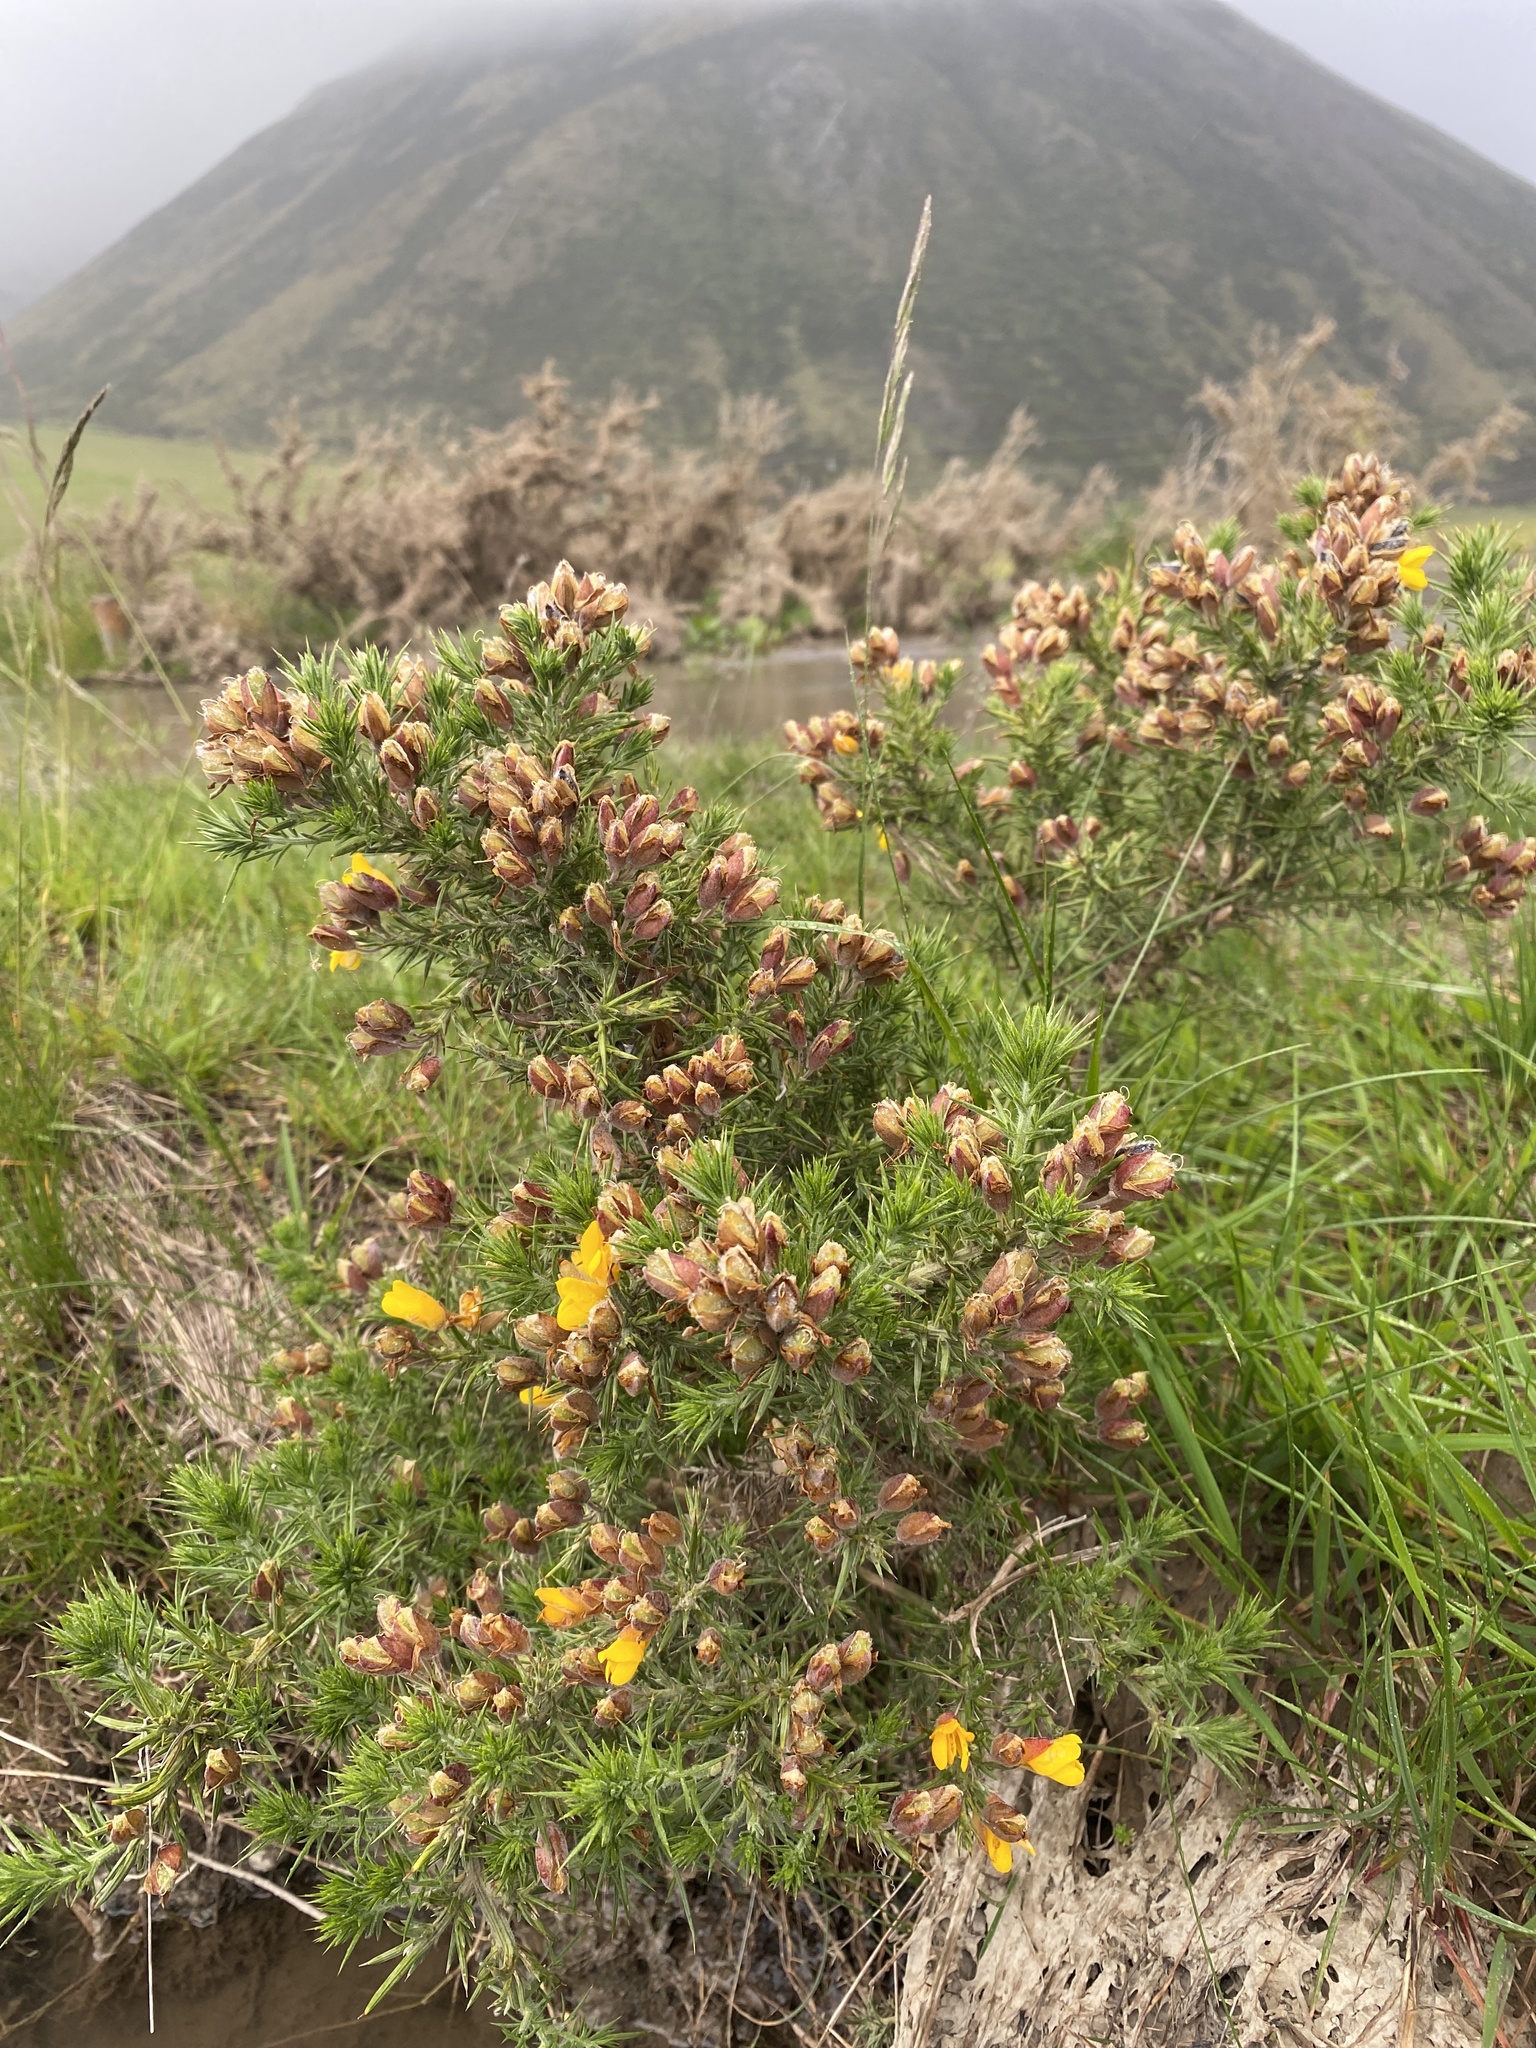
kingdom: Plantae
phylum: Tracheophyta
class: Magnoliopsida
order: Fabales
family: Fabaceae
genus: Ulex
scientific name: Ulex europaeus
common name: Common gorse
